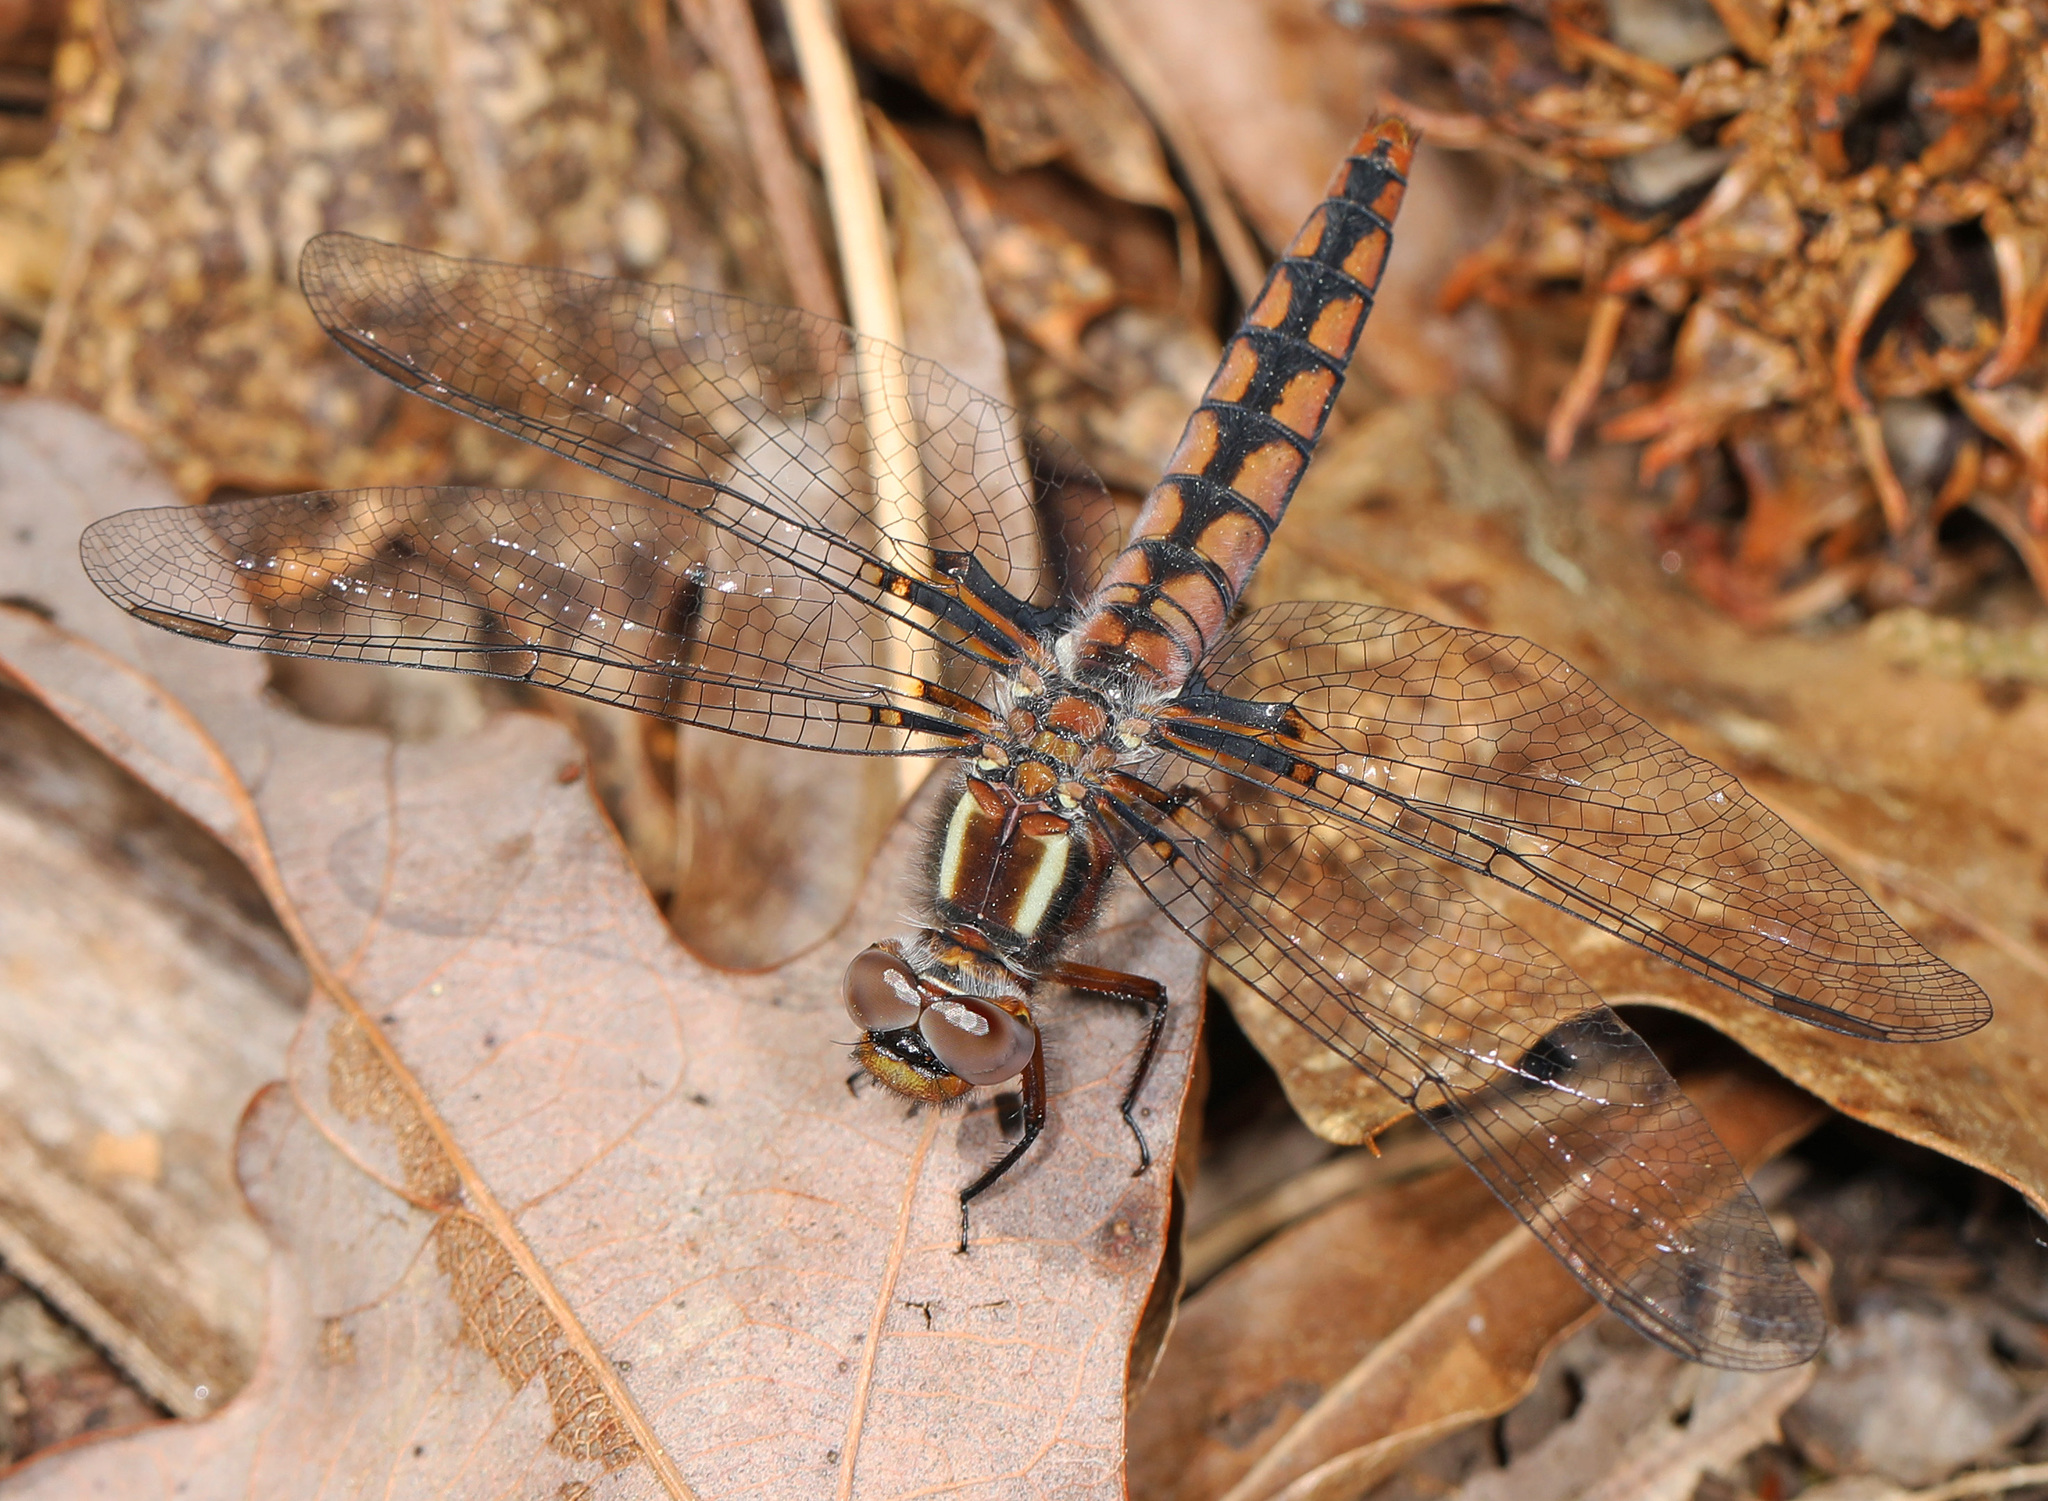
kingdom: Animalia
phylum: Arthropoda
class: Insecta
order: Odonata
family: Libellulidae
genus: Ladona
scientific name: Ladona deplanata
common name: Blue corporal
